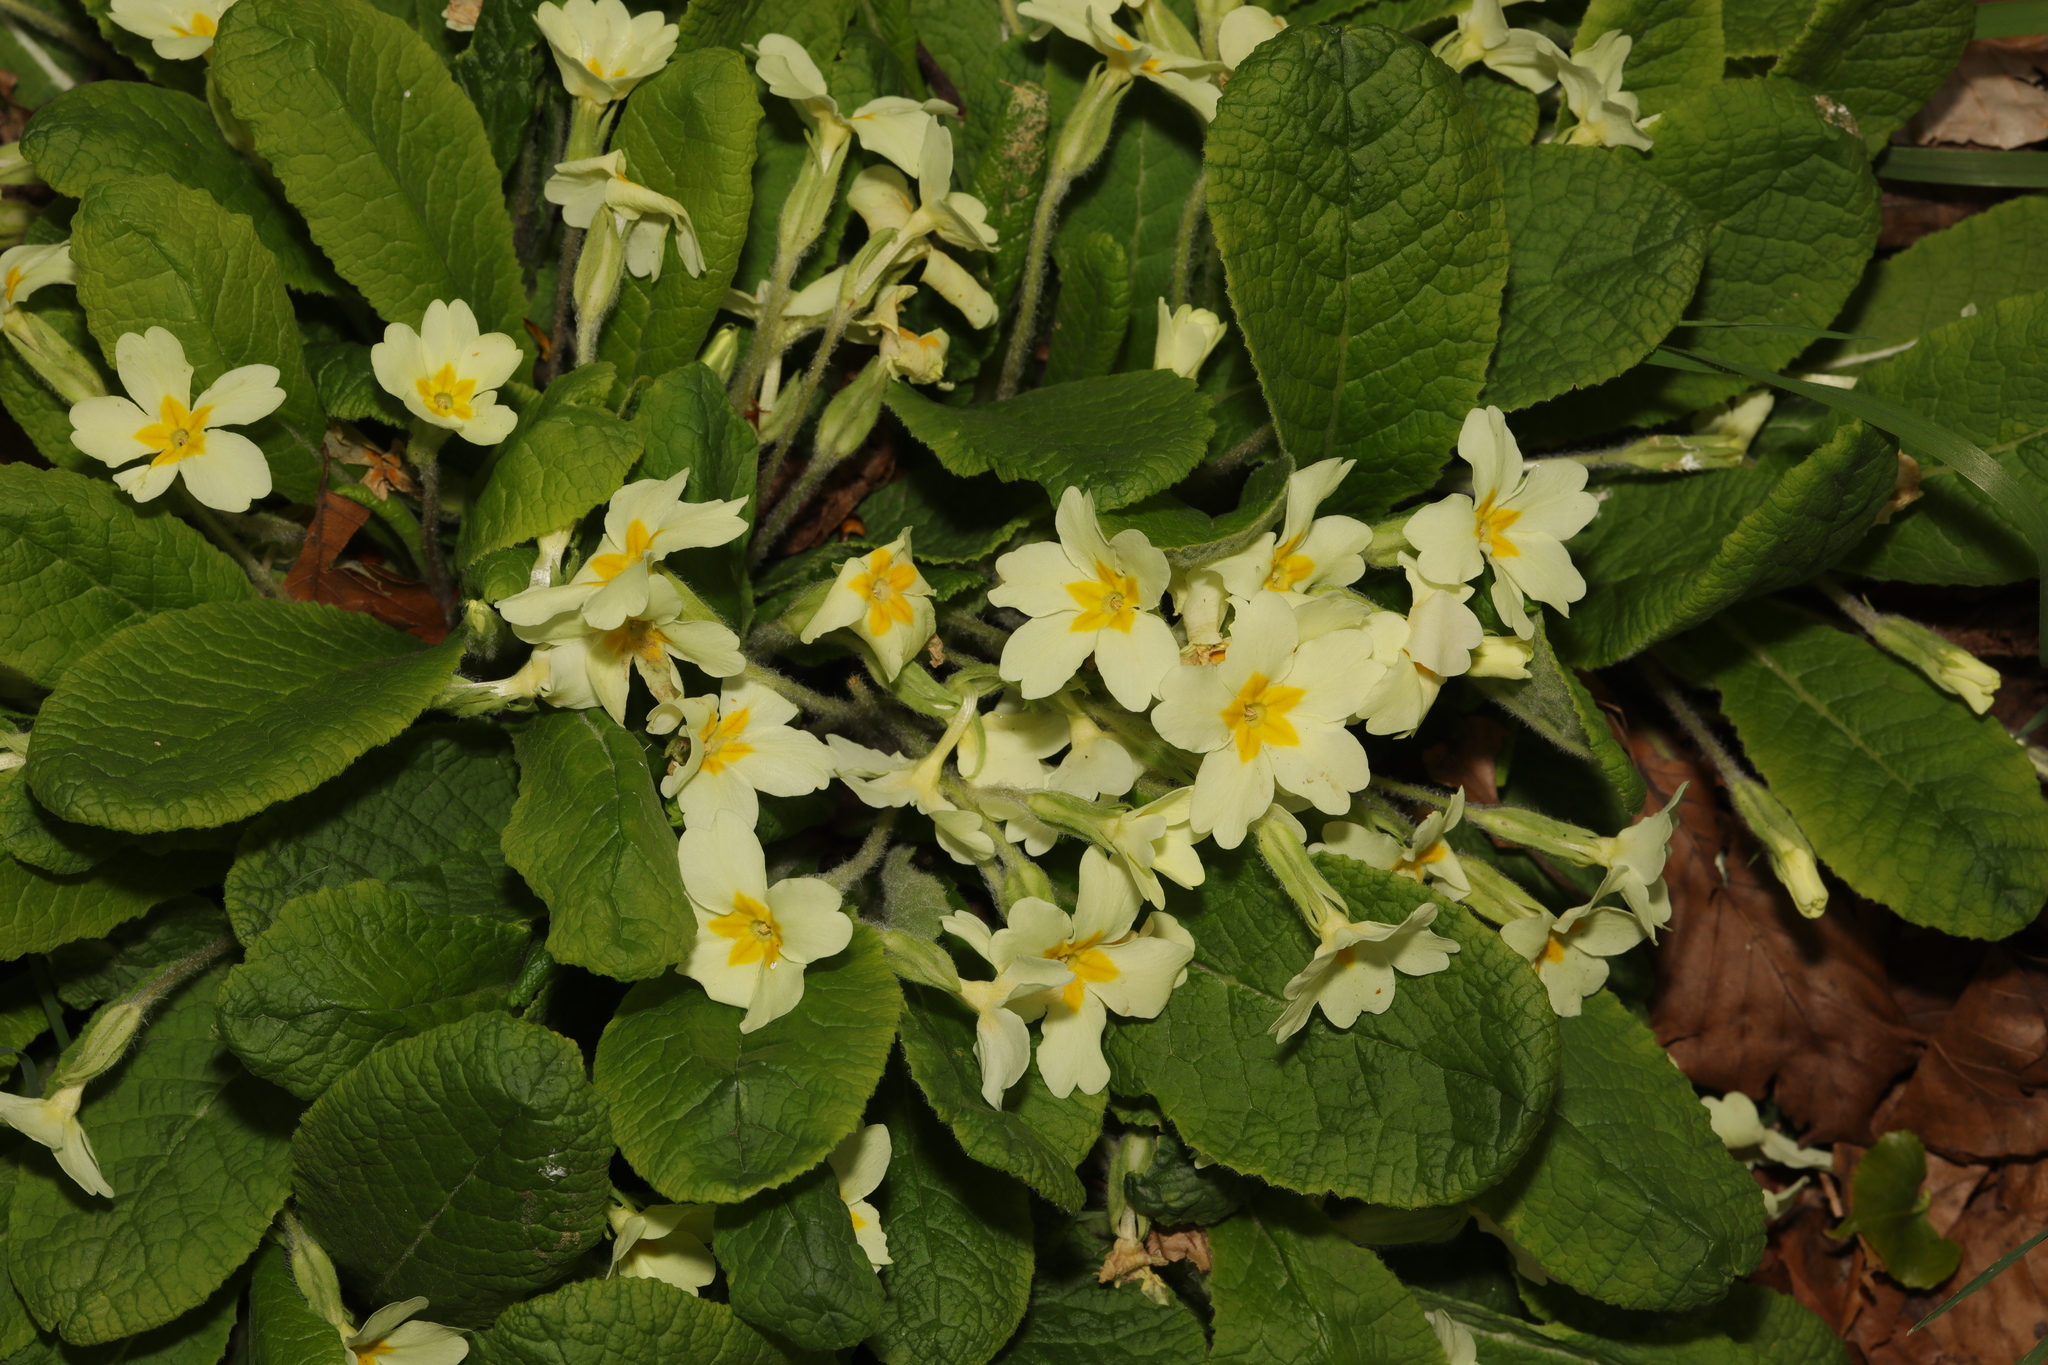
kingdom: Plantae
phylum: Tracheophyta
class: Magnoliopsida
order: Ericales
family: Primulaceae
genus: Primula
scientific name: Primula vulgaris
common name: Primrose
